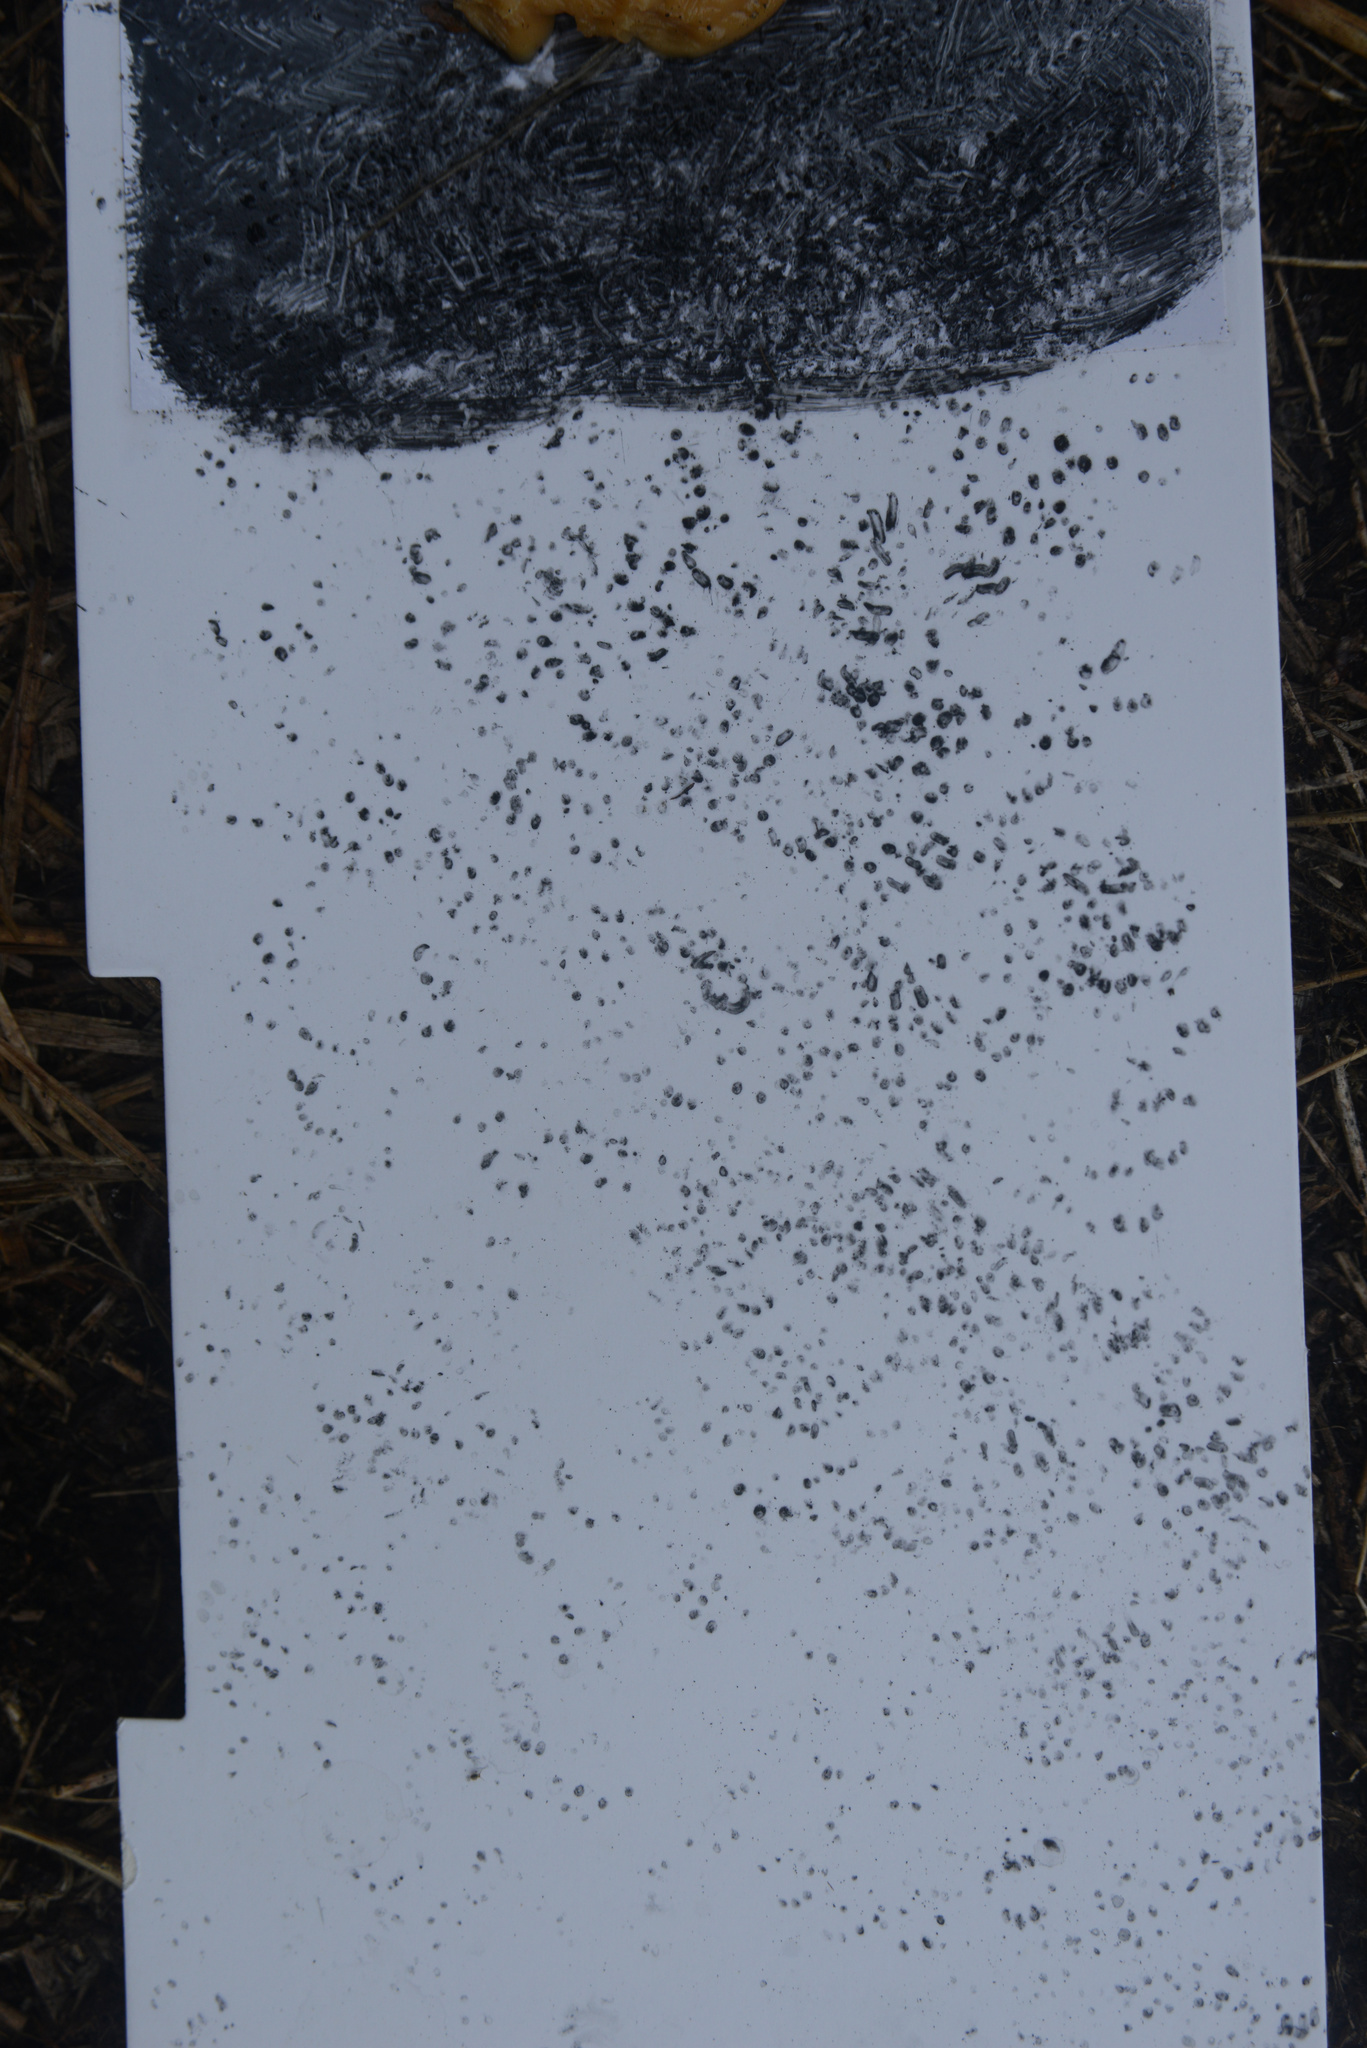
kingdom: Animalia
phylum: Chordata
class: Mammalia
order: Rodentia
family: Muridae
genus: Mus
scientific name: Mus musculus
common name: House mouse
